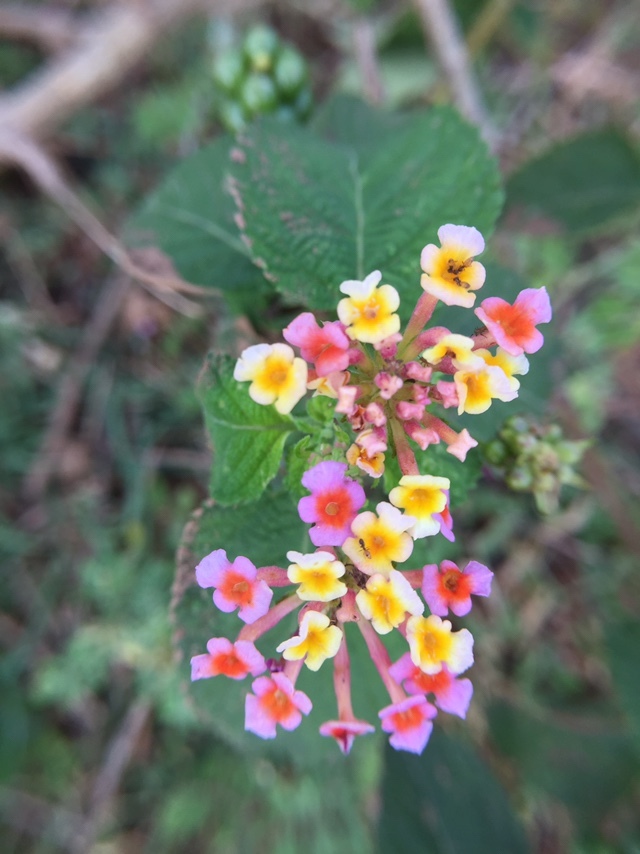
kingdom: Plantae
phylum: Tracheophyta
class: Magnoliopsida
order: Lamiales
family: Verbenaceae
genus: Lantana
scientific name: Lantana camara
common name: Lantana
